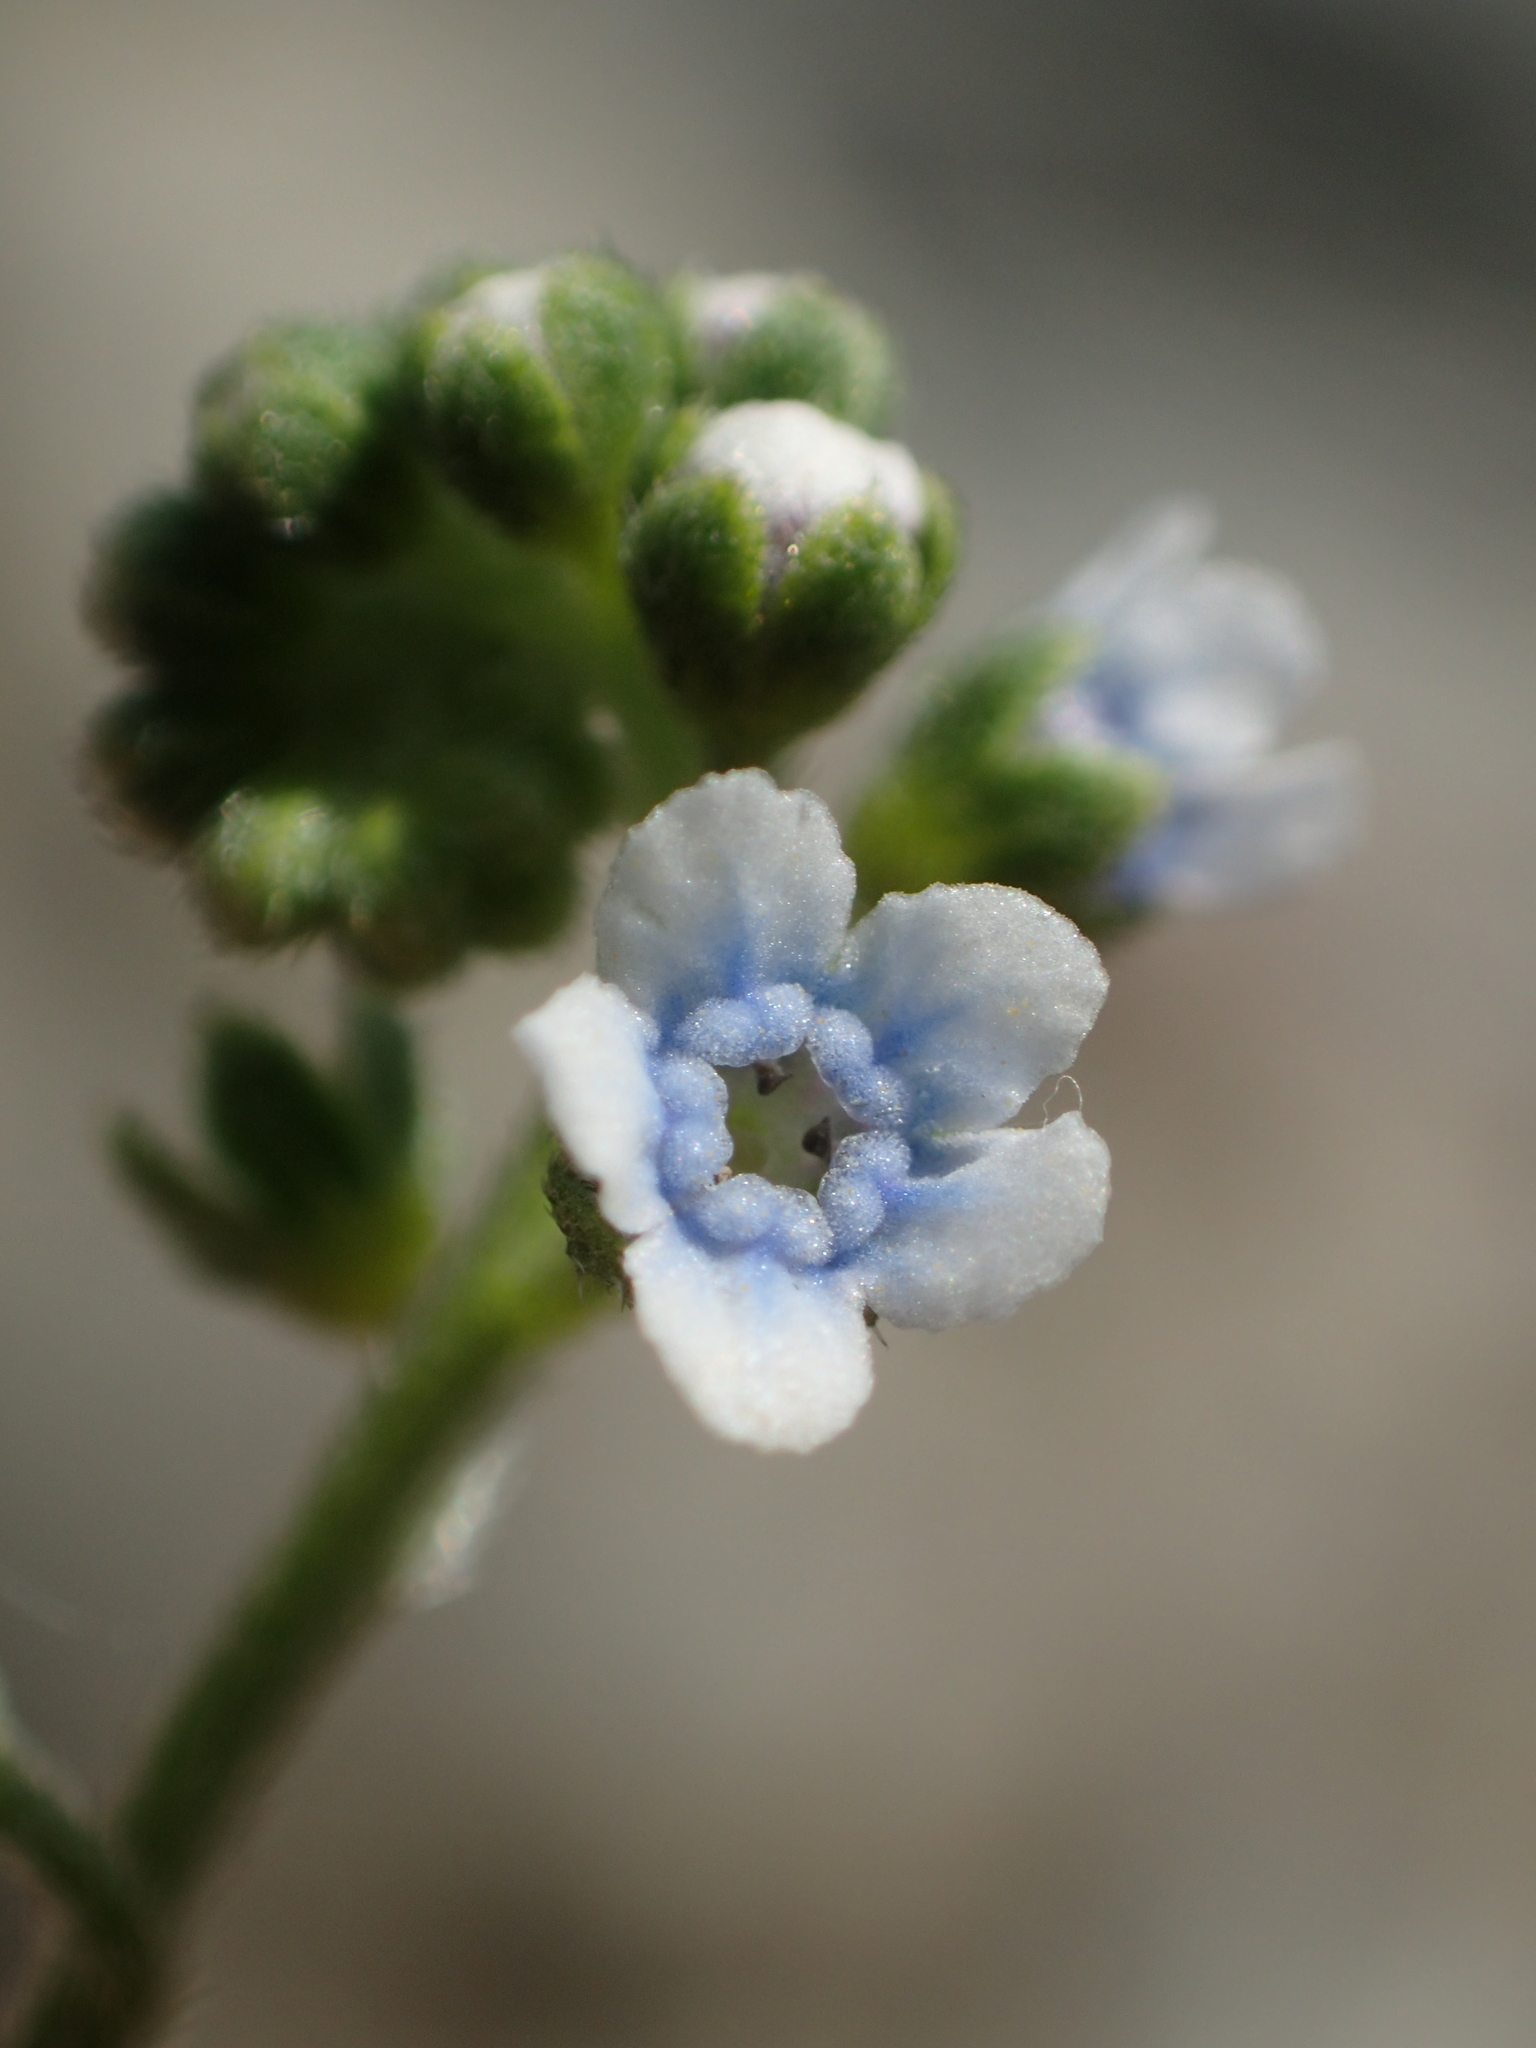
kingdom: Plantae
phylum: Tracheophyta
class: Magnoliopsida
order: Boraginales
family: Boraginaceae
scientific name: Boraginaceae
